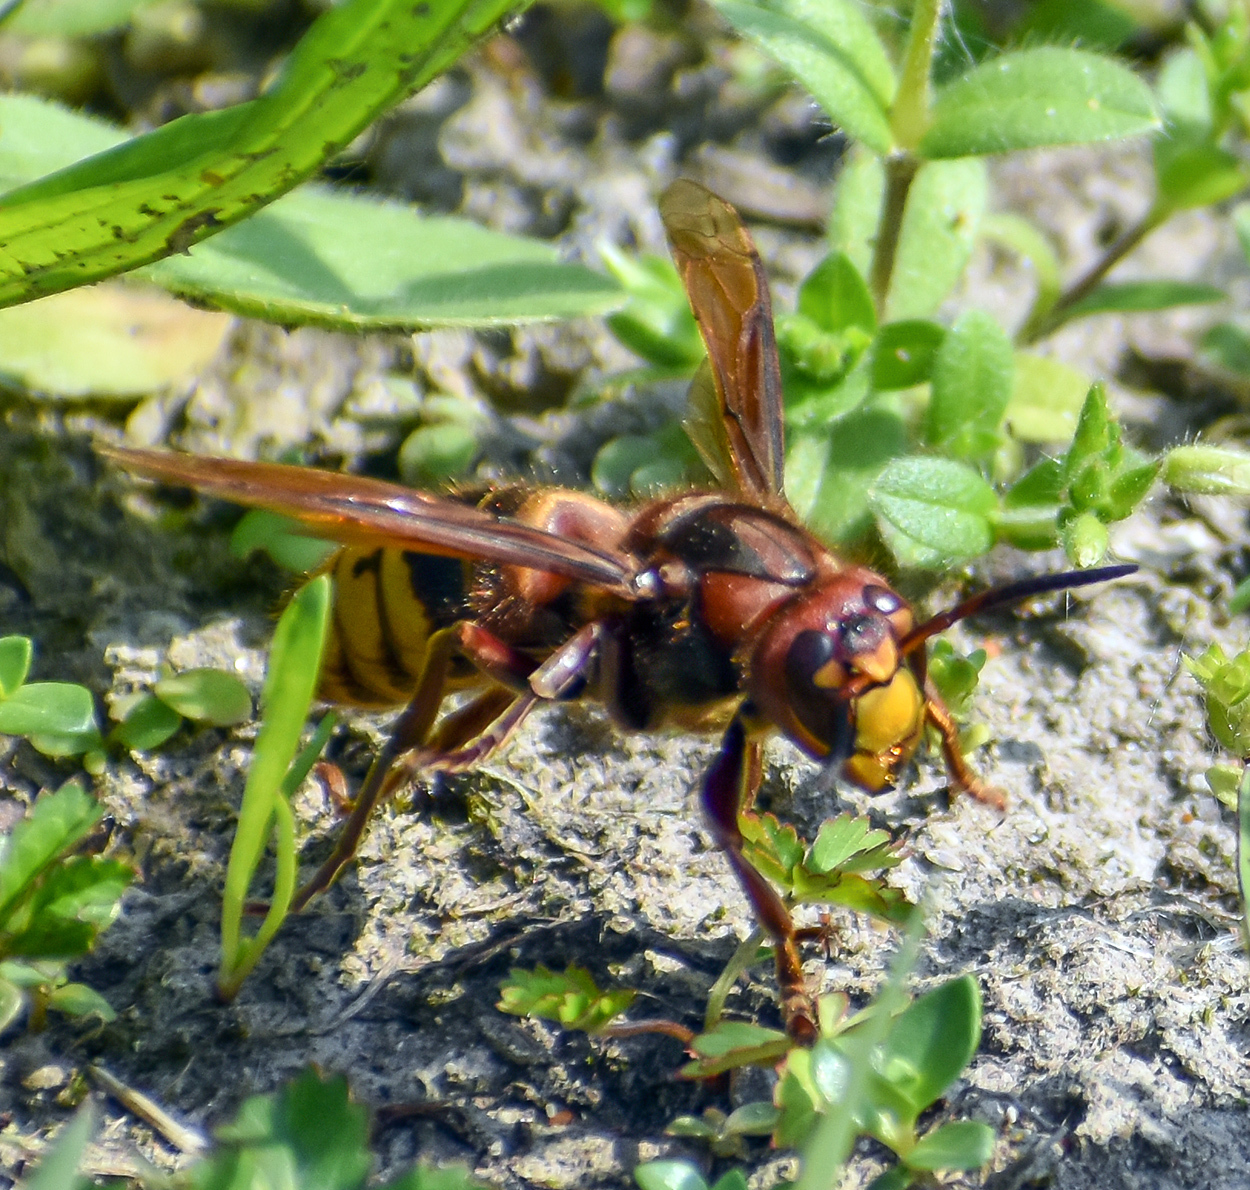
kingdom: Animalia
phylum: Arthropoda
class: Insecta
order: Hymenoptera
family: Vespidae
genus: Vespa
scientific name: Vespa crabro
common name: Hornet
